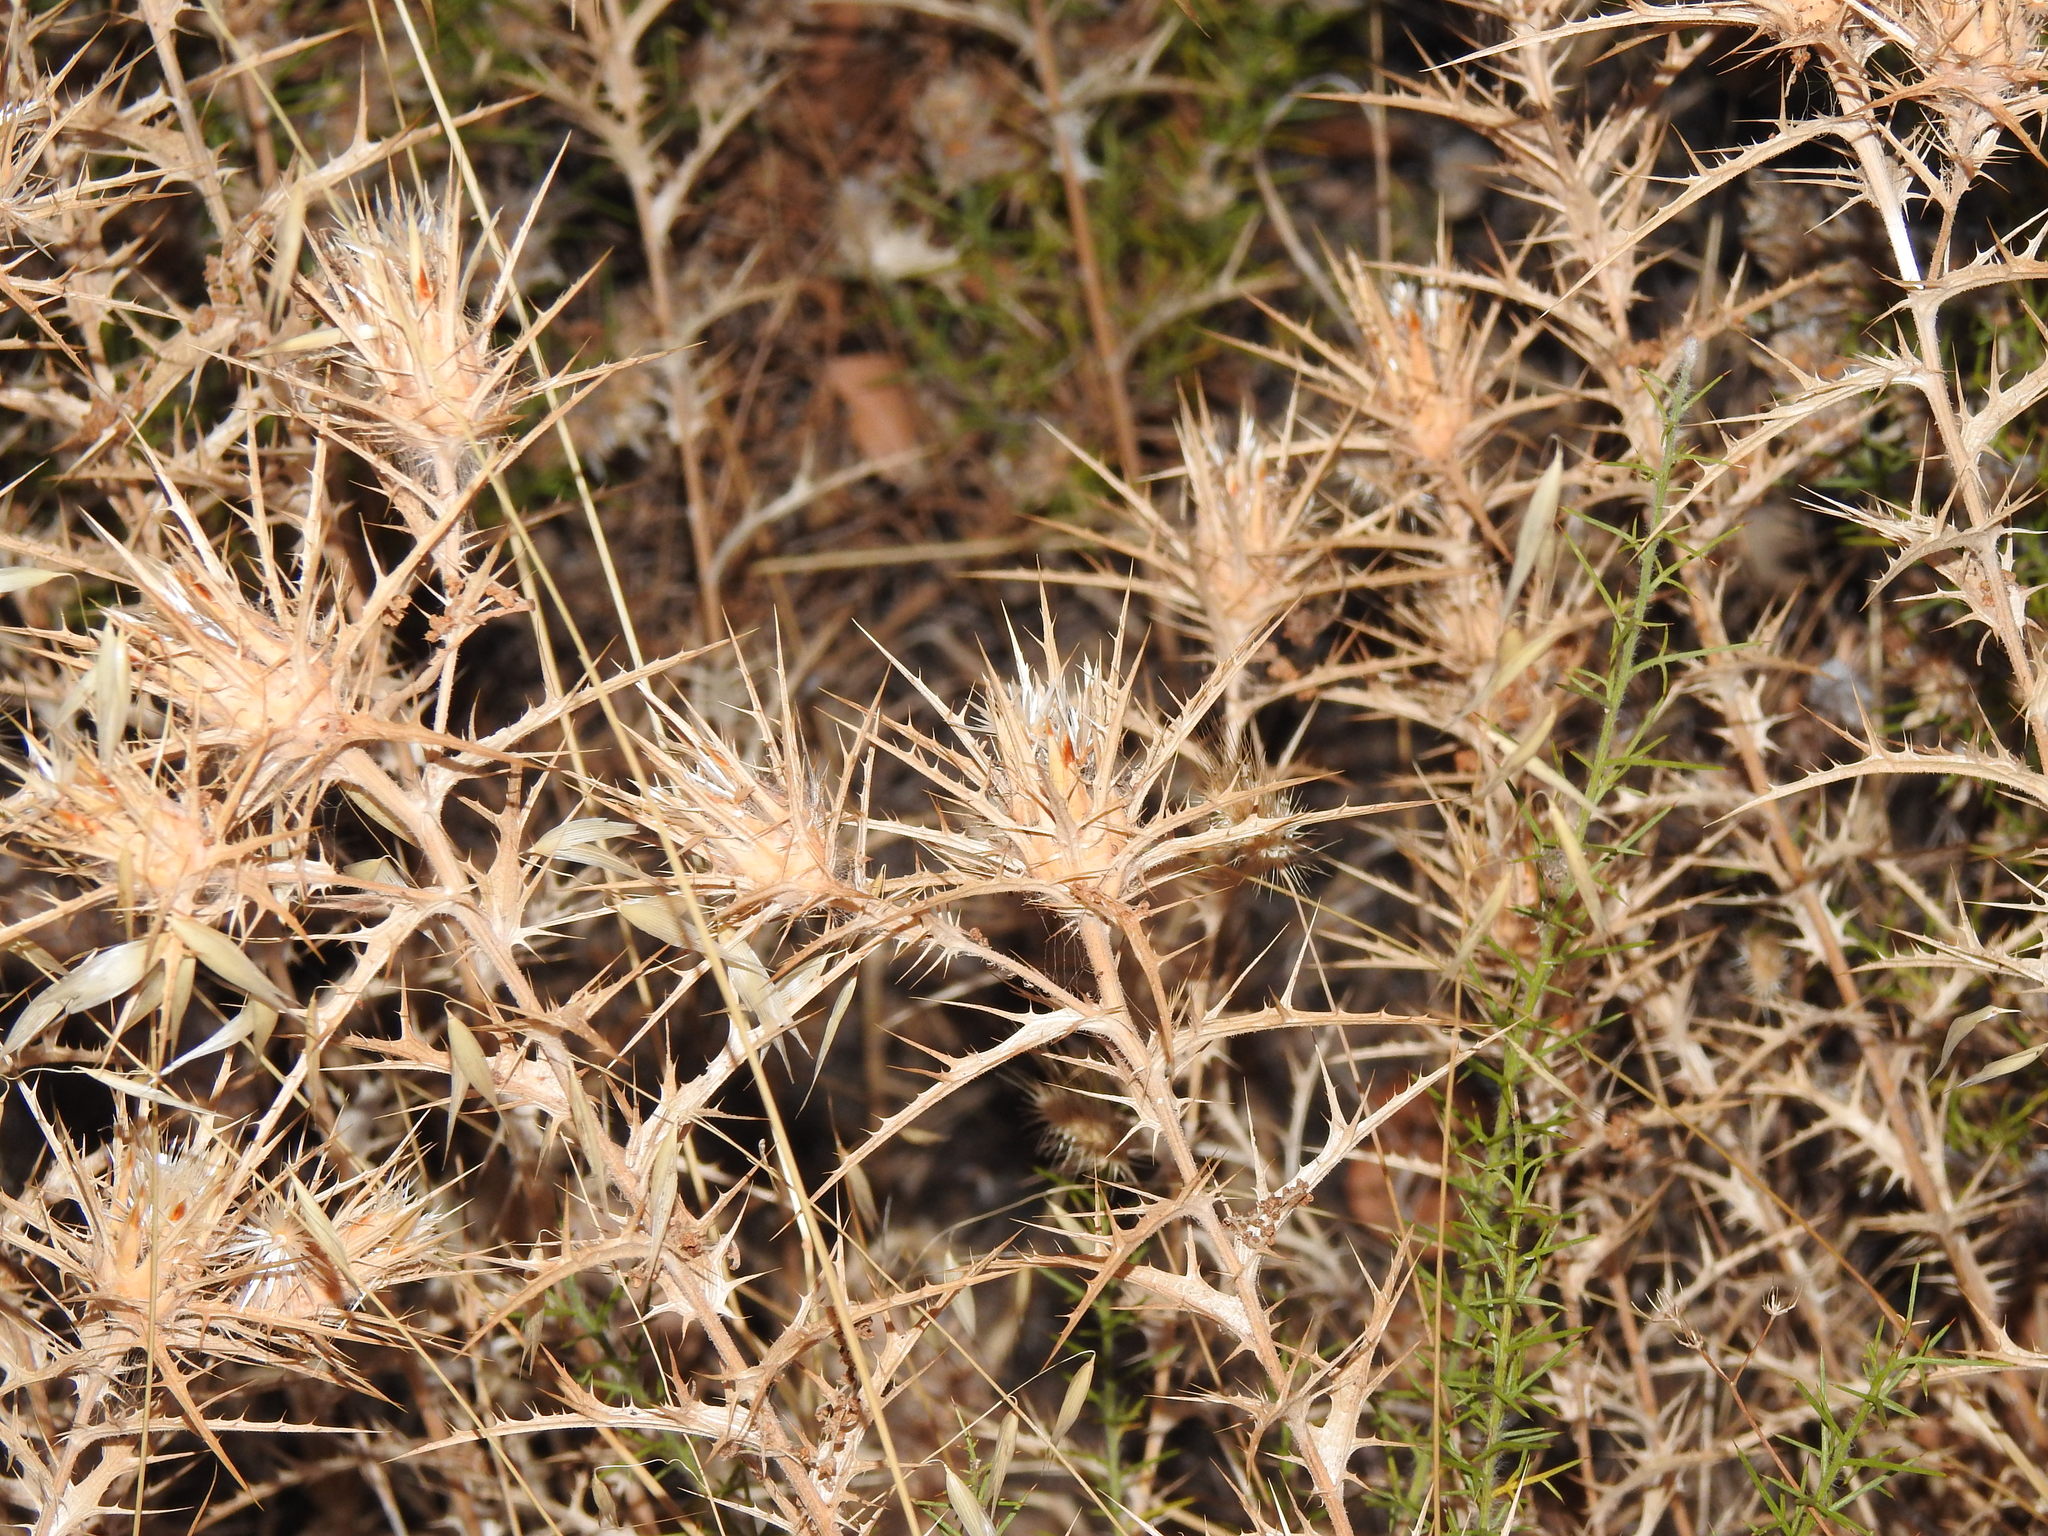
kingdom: Plantae
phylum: Tracheophyta
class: Magnoliopsida
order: Asterales
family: Asteraceae
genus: Carthamus
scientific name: Carthamus lanatus
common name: Downy safflower
